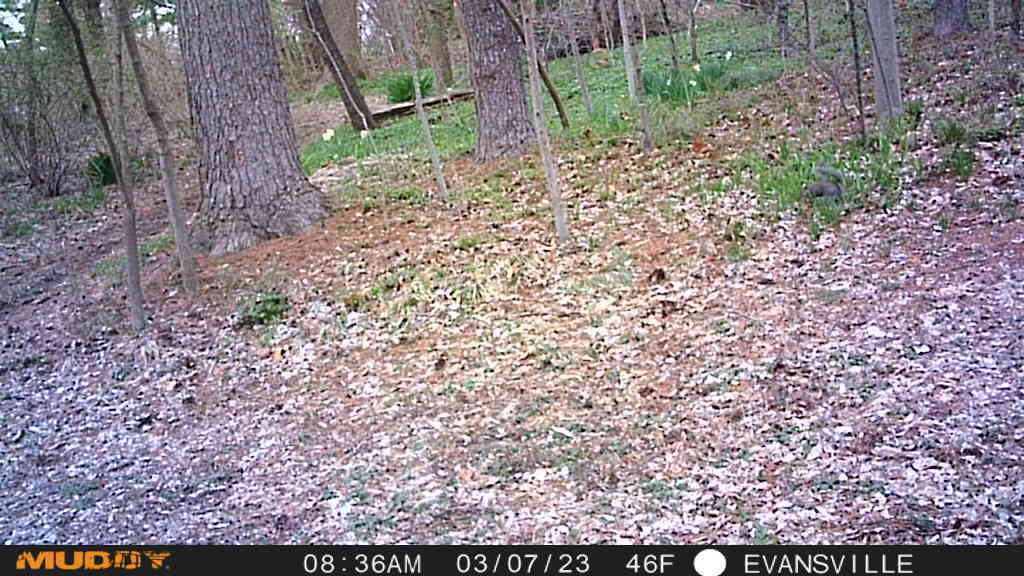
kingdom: Animalia
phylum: Chordata
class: Mammalia
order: Rodentia
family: Sciuridae
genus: Sciurus
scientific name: Sciurus carolinensis
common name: Eastern gray squirrel
